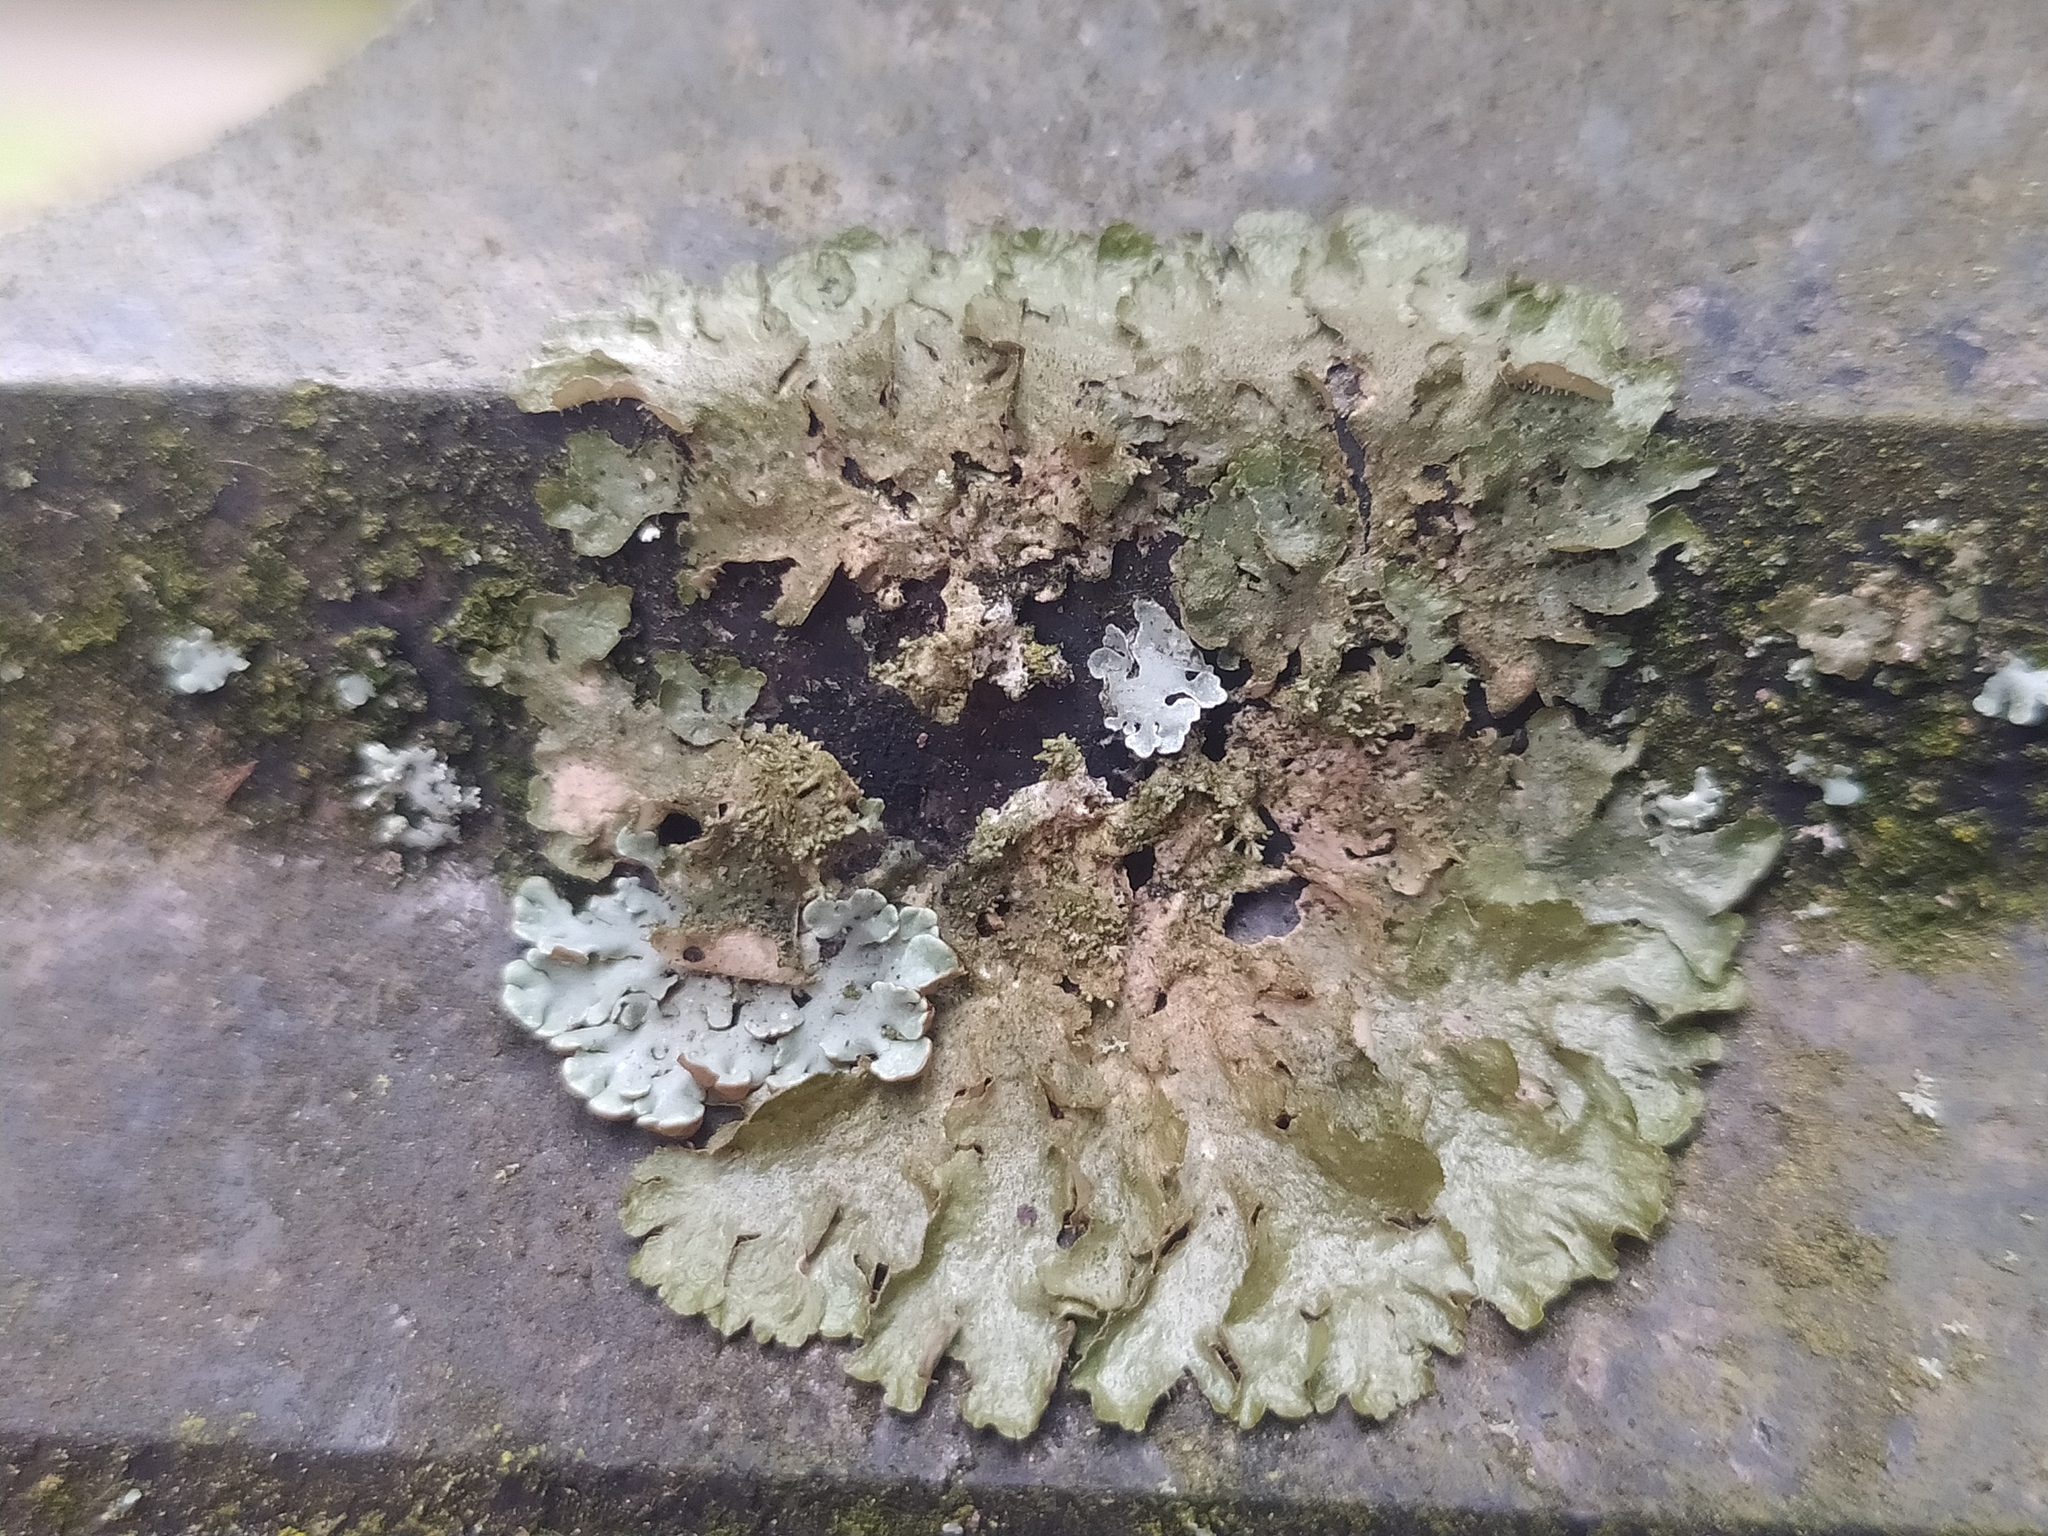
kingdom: Fungi
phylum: Ascomycota
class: Lecanoromycetes
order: Lecanorales
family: Parmeliaceae
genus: Melanohalea
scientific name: Melanohalea exasperatula
